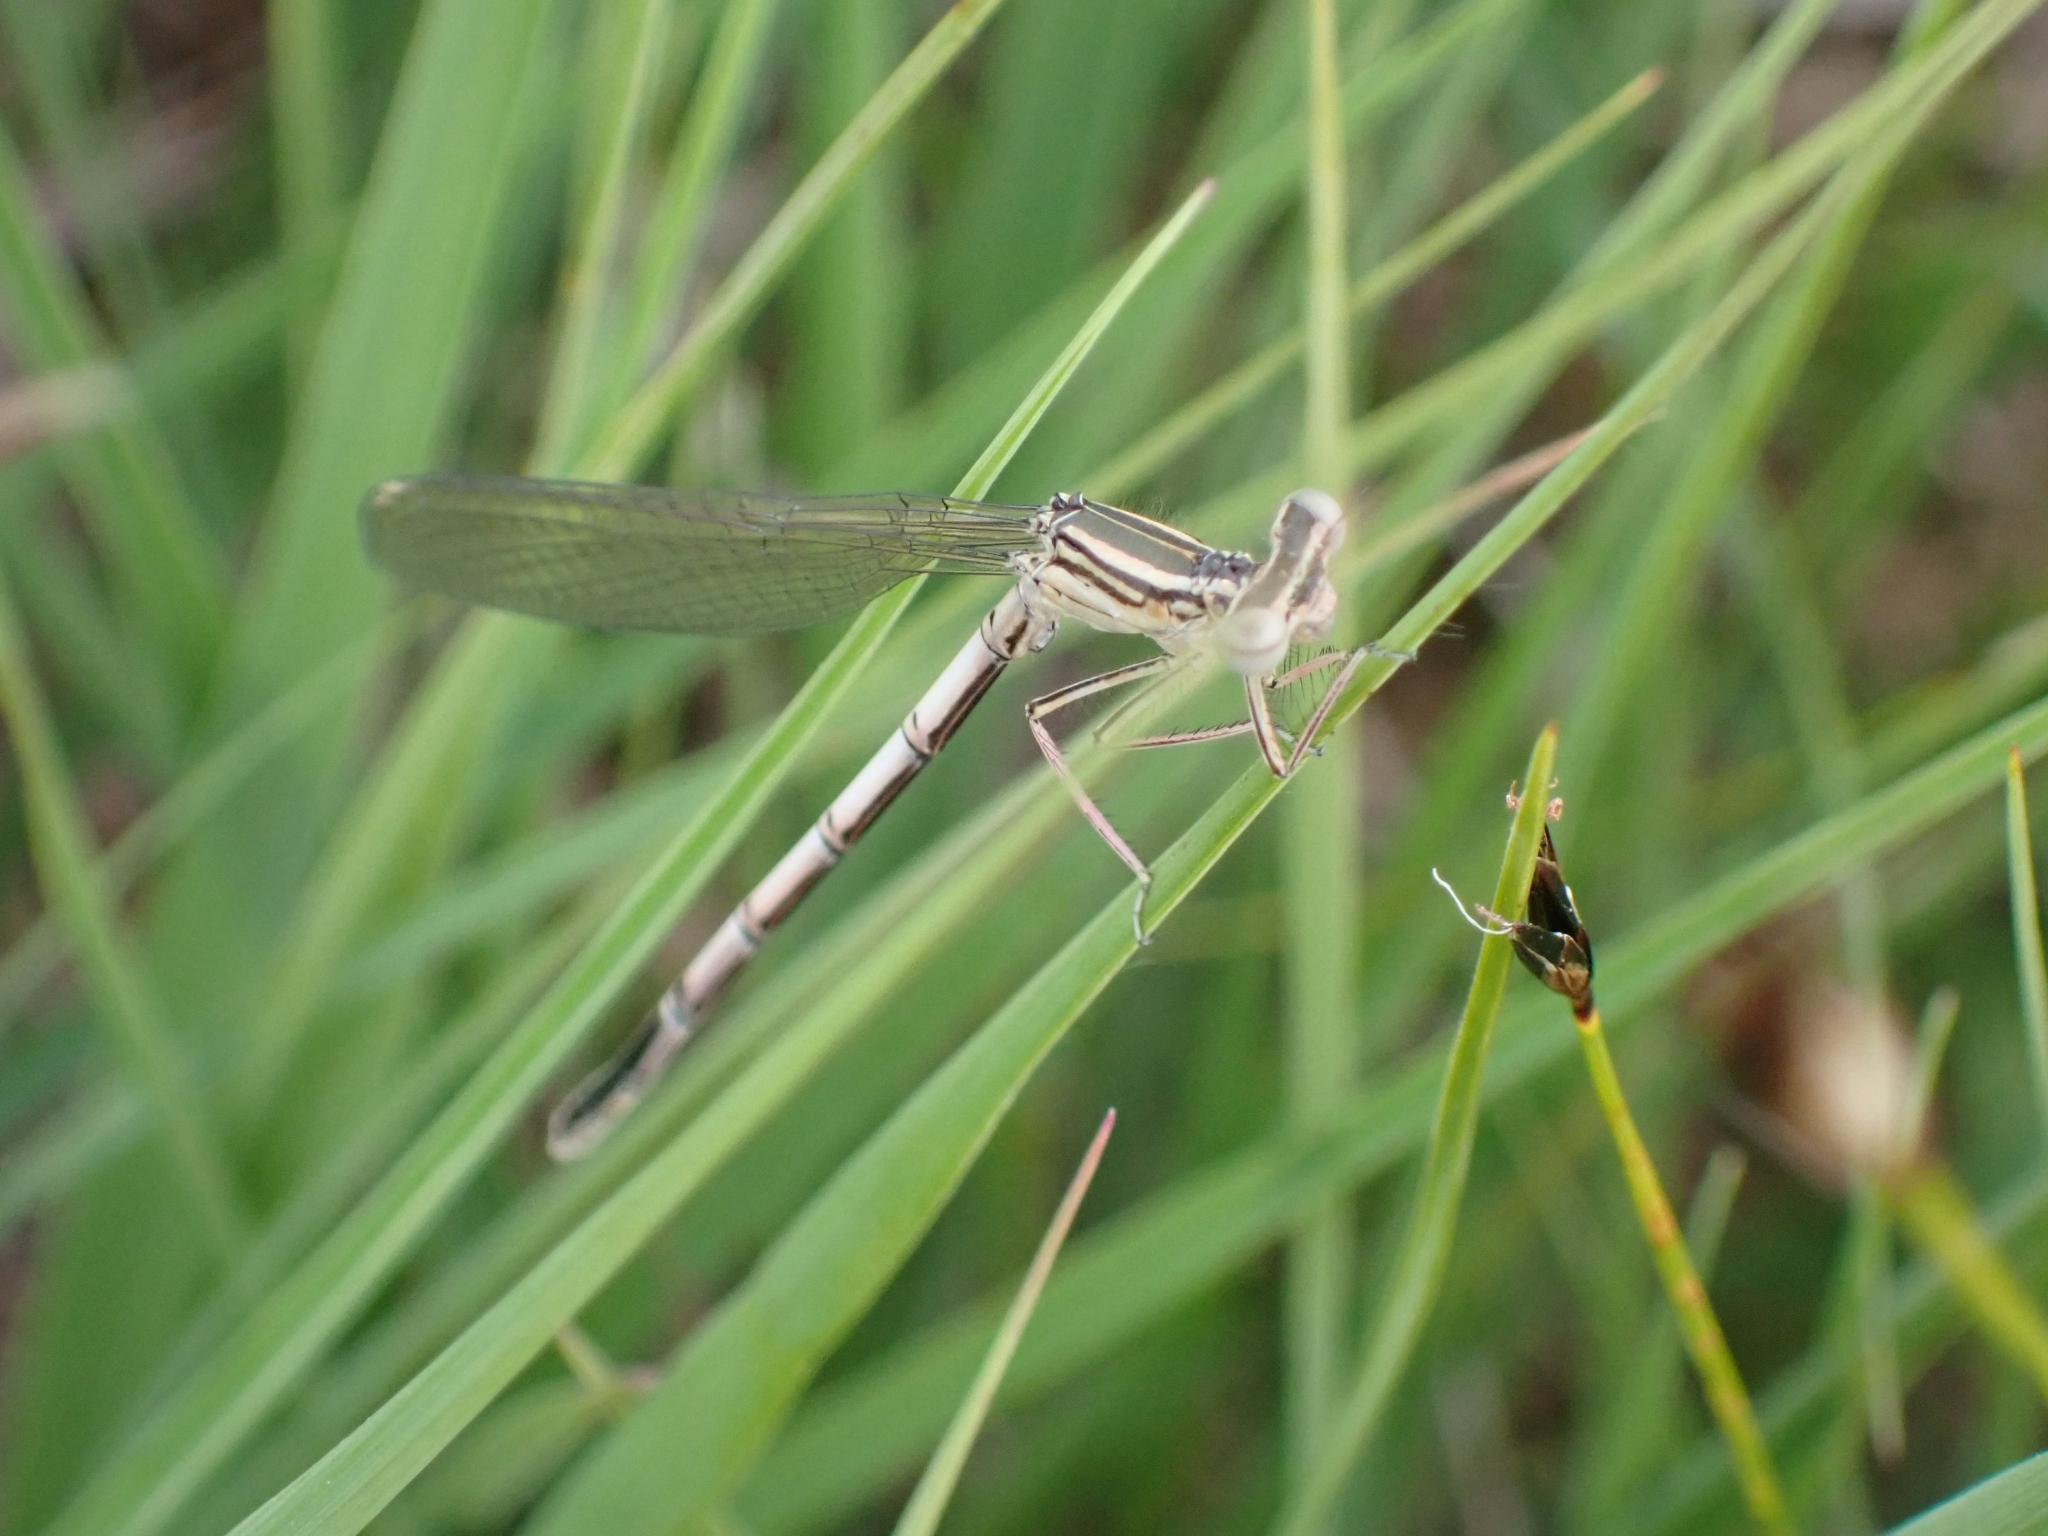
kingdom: Animalia
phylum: Arthropoda
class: Insecta
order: Odonata
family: Platycnemididae
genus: Platycnemis
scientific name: Platycnemis pennipes
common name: White-legged damselfly
